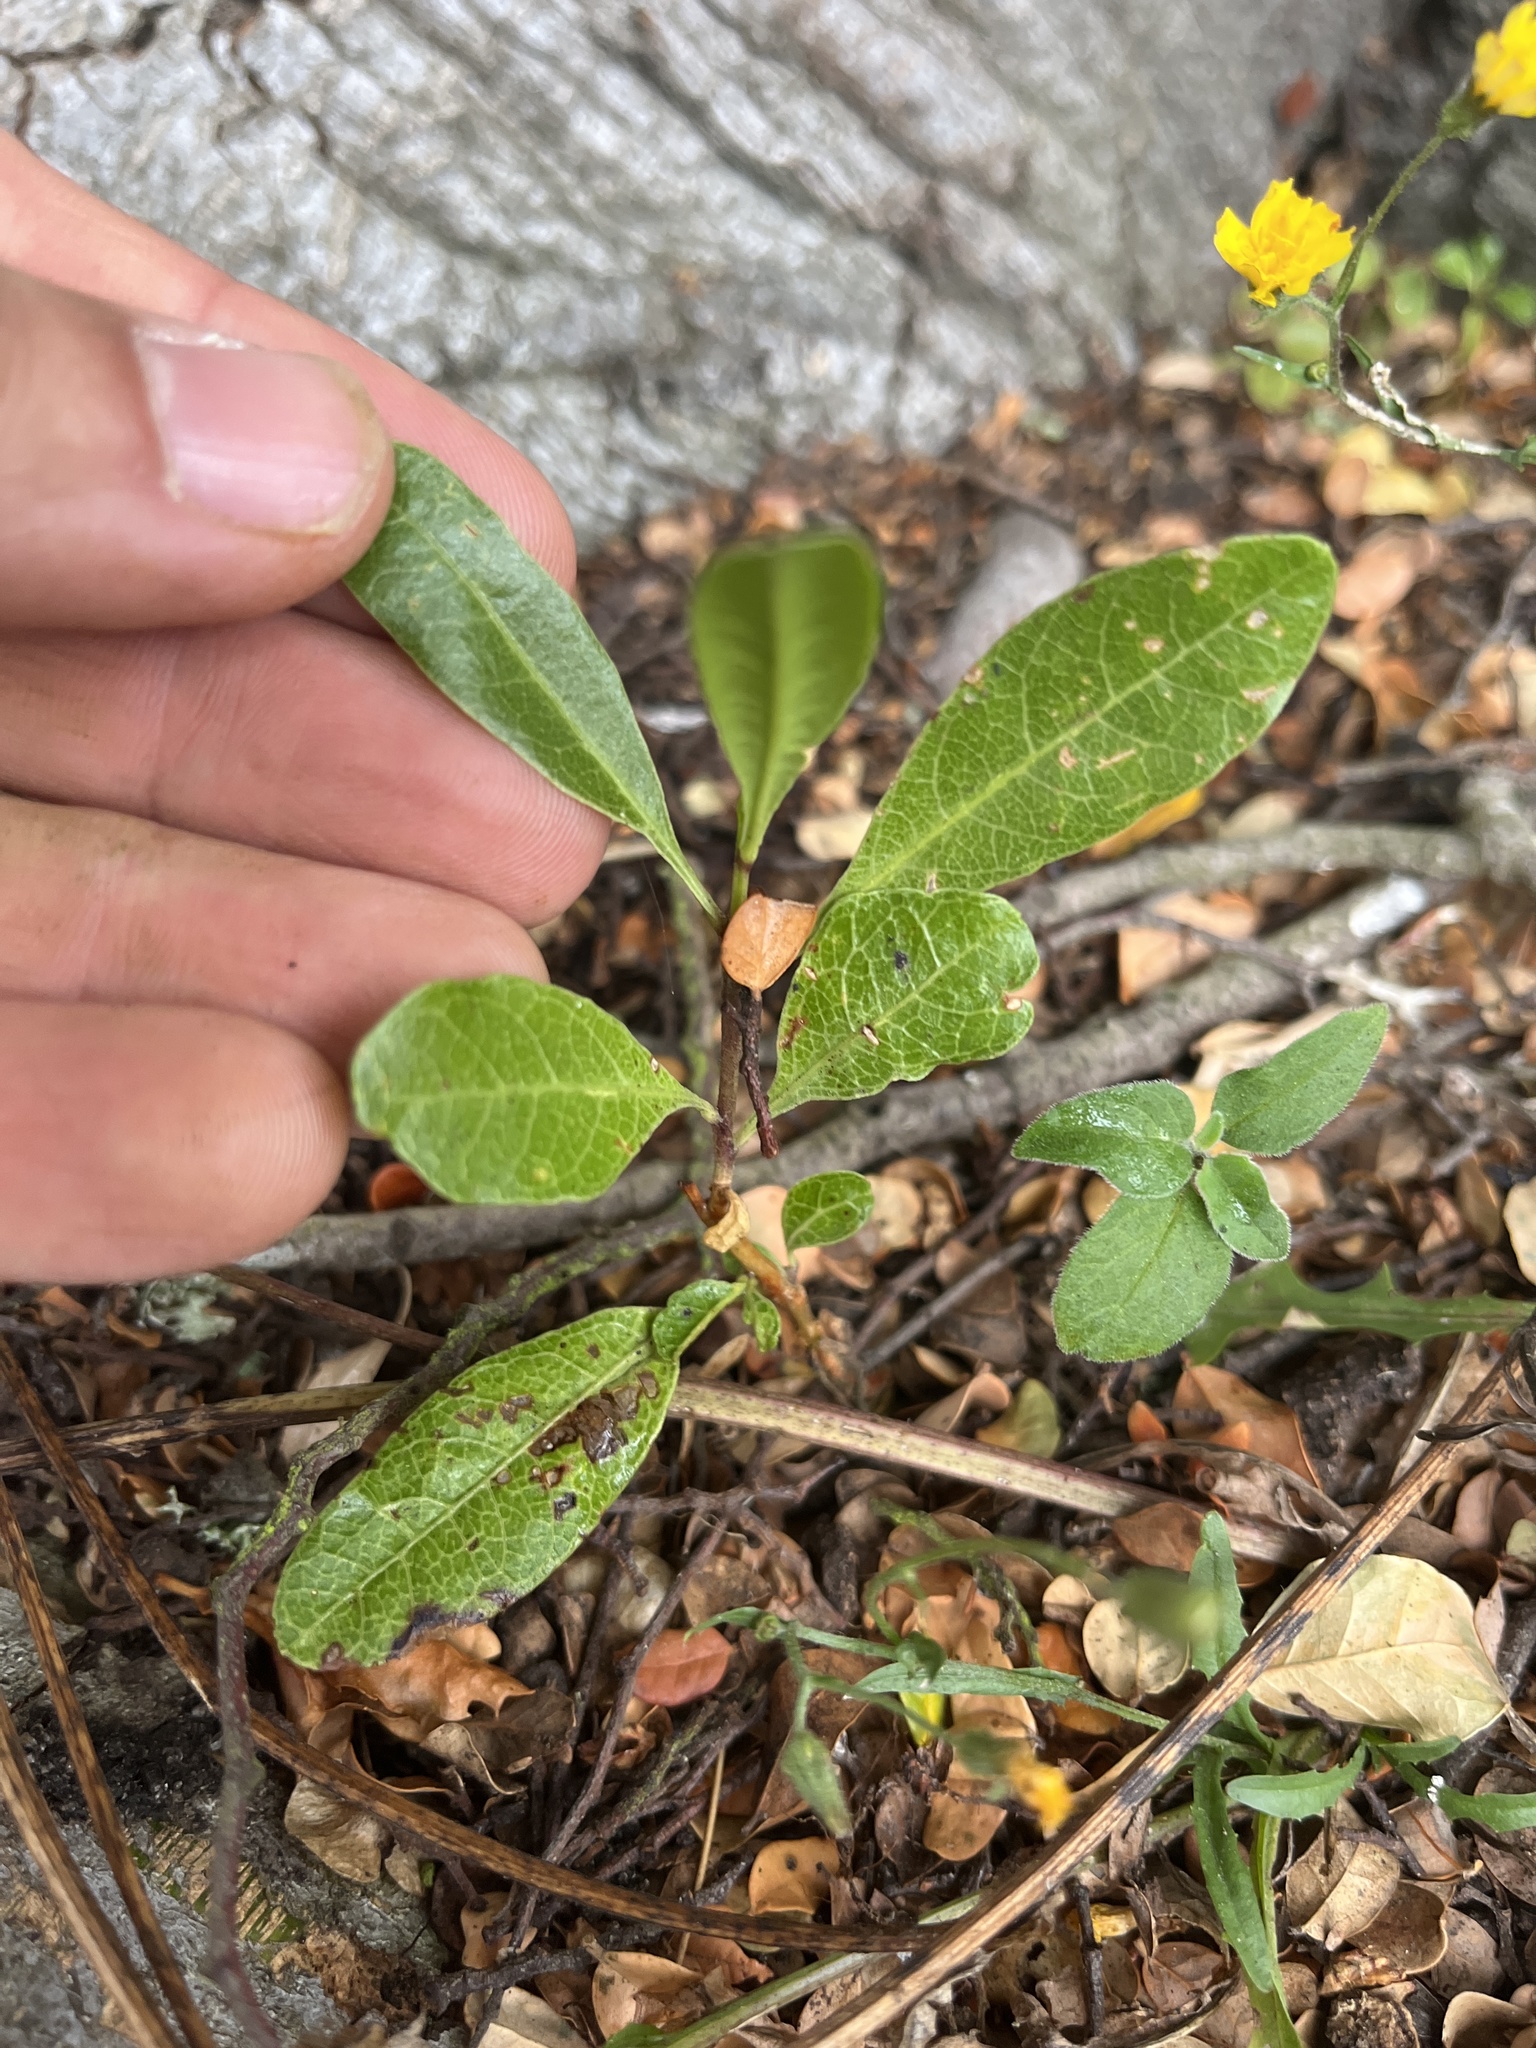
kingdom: Plantae
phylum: Tracheophyta
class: Magnoliopsida
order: Sapindales
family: Sapindaceae
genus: Dodonaea
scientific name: Dodonaea viscosa
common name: Hopbush
